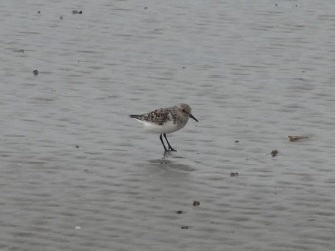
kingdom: Animalia
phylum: Chordata
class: Aves
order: Charadriiformes
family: Scolopacidae
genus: Calidris
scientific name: Calidris alba
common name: Sanderling
